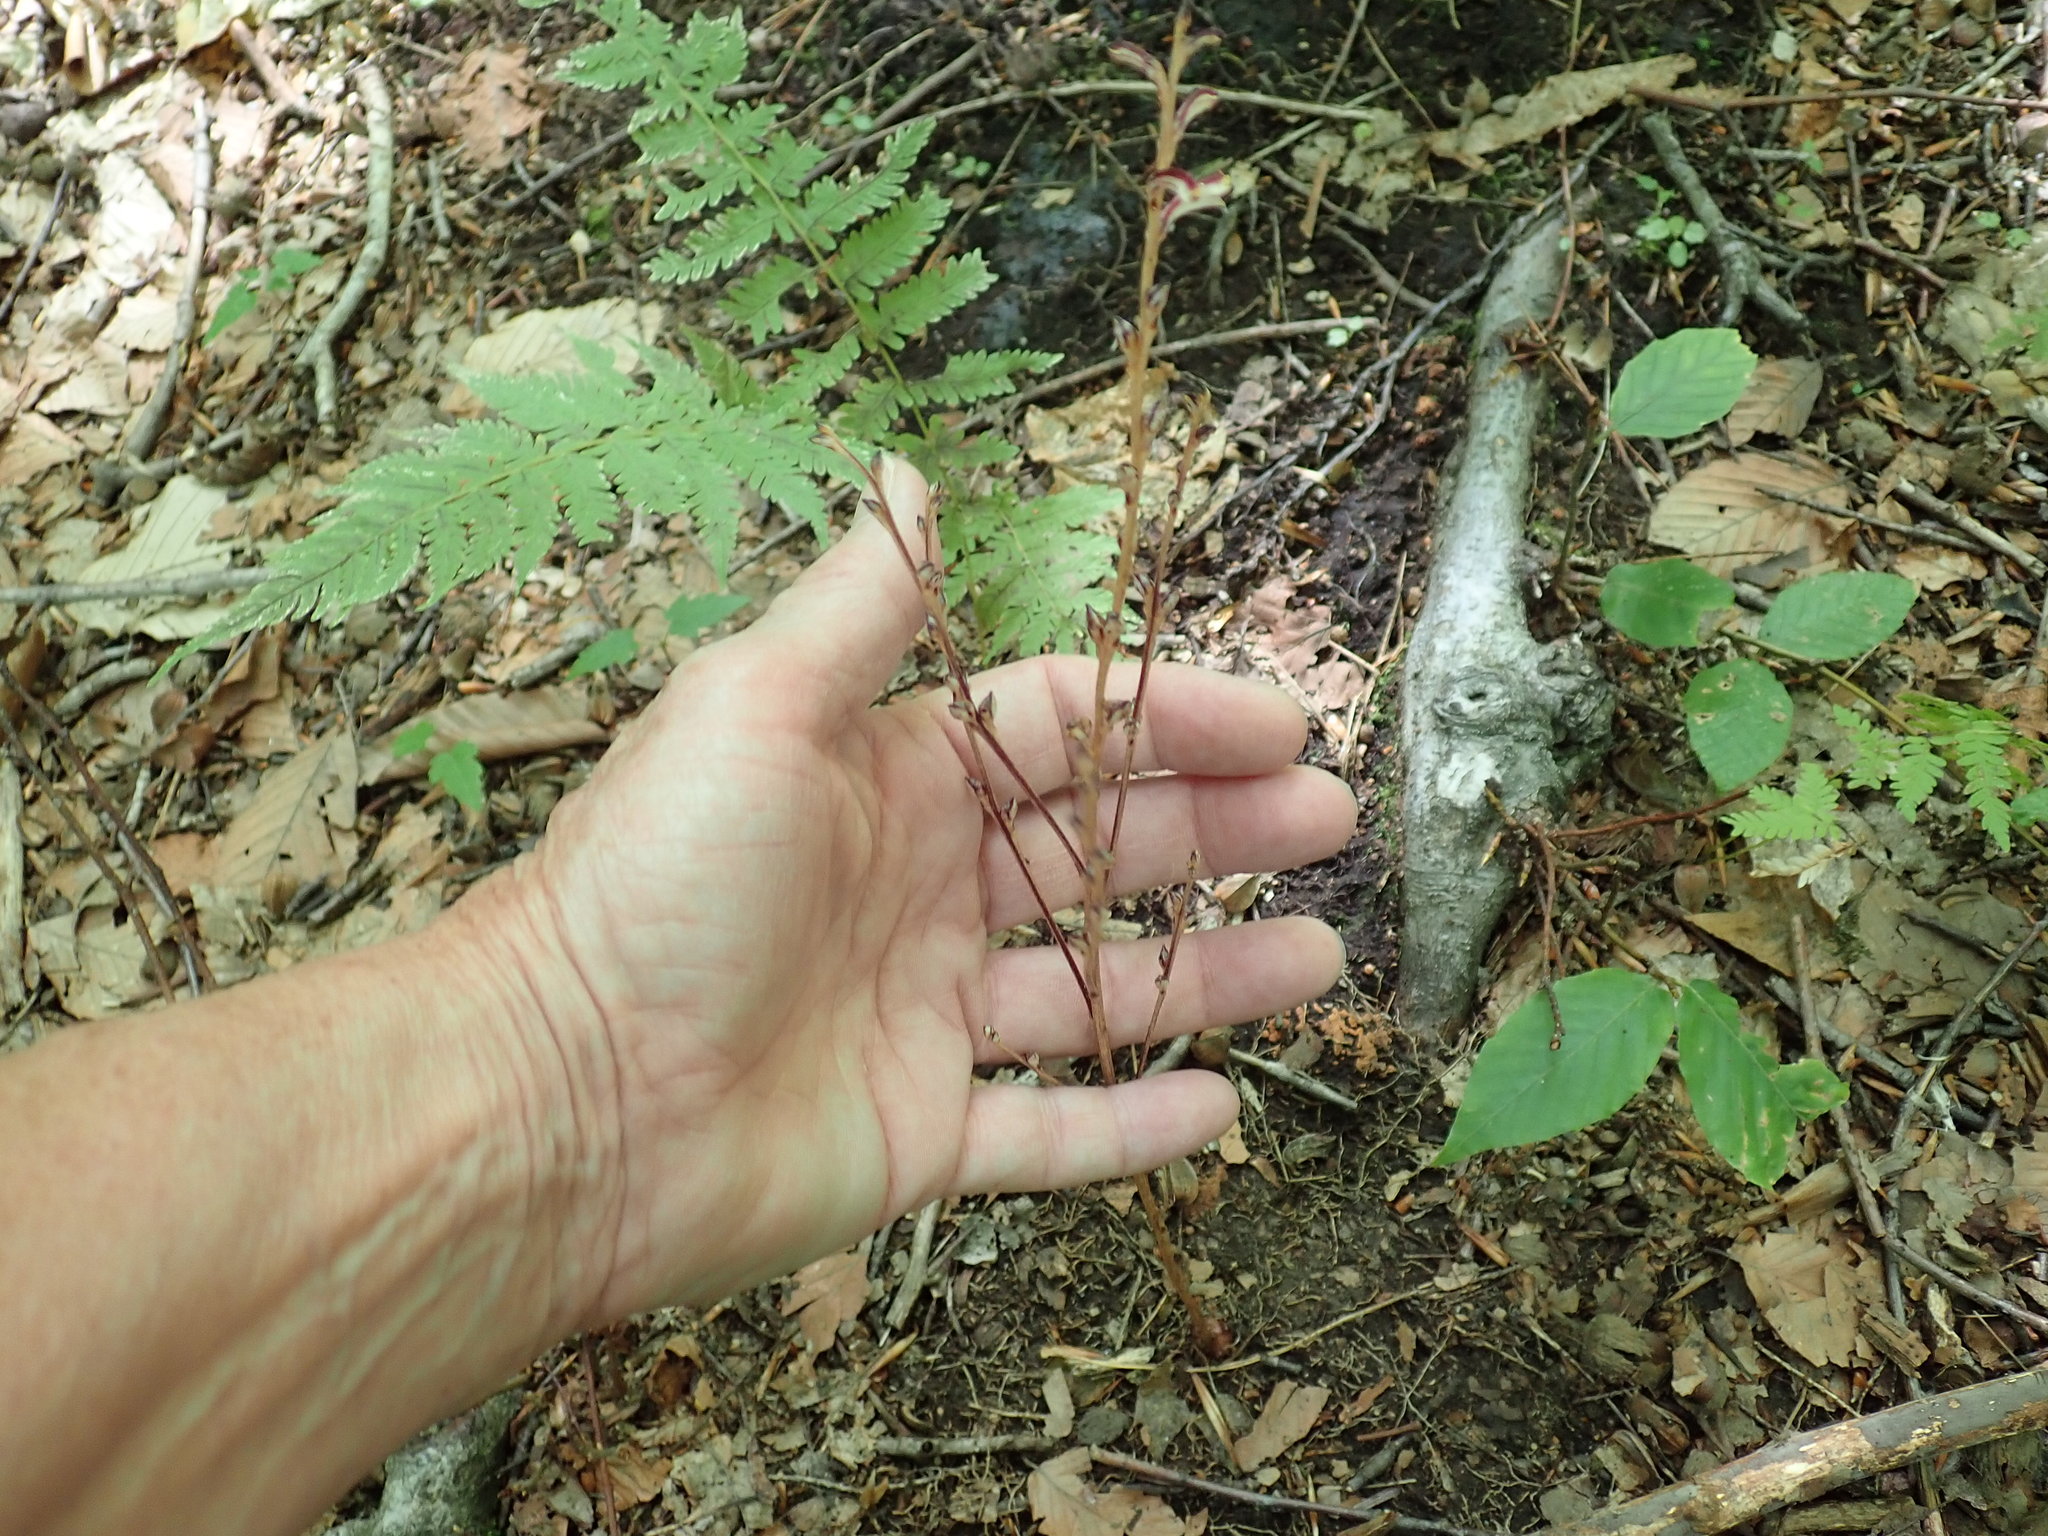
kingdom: Plantae
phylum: Tracheophyta
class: Magnoliopsida
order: Lamiales
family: Orobanchaceae
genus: Epifagus
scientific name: Epifagus virginiana
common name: Beechdrops
